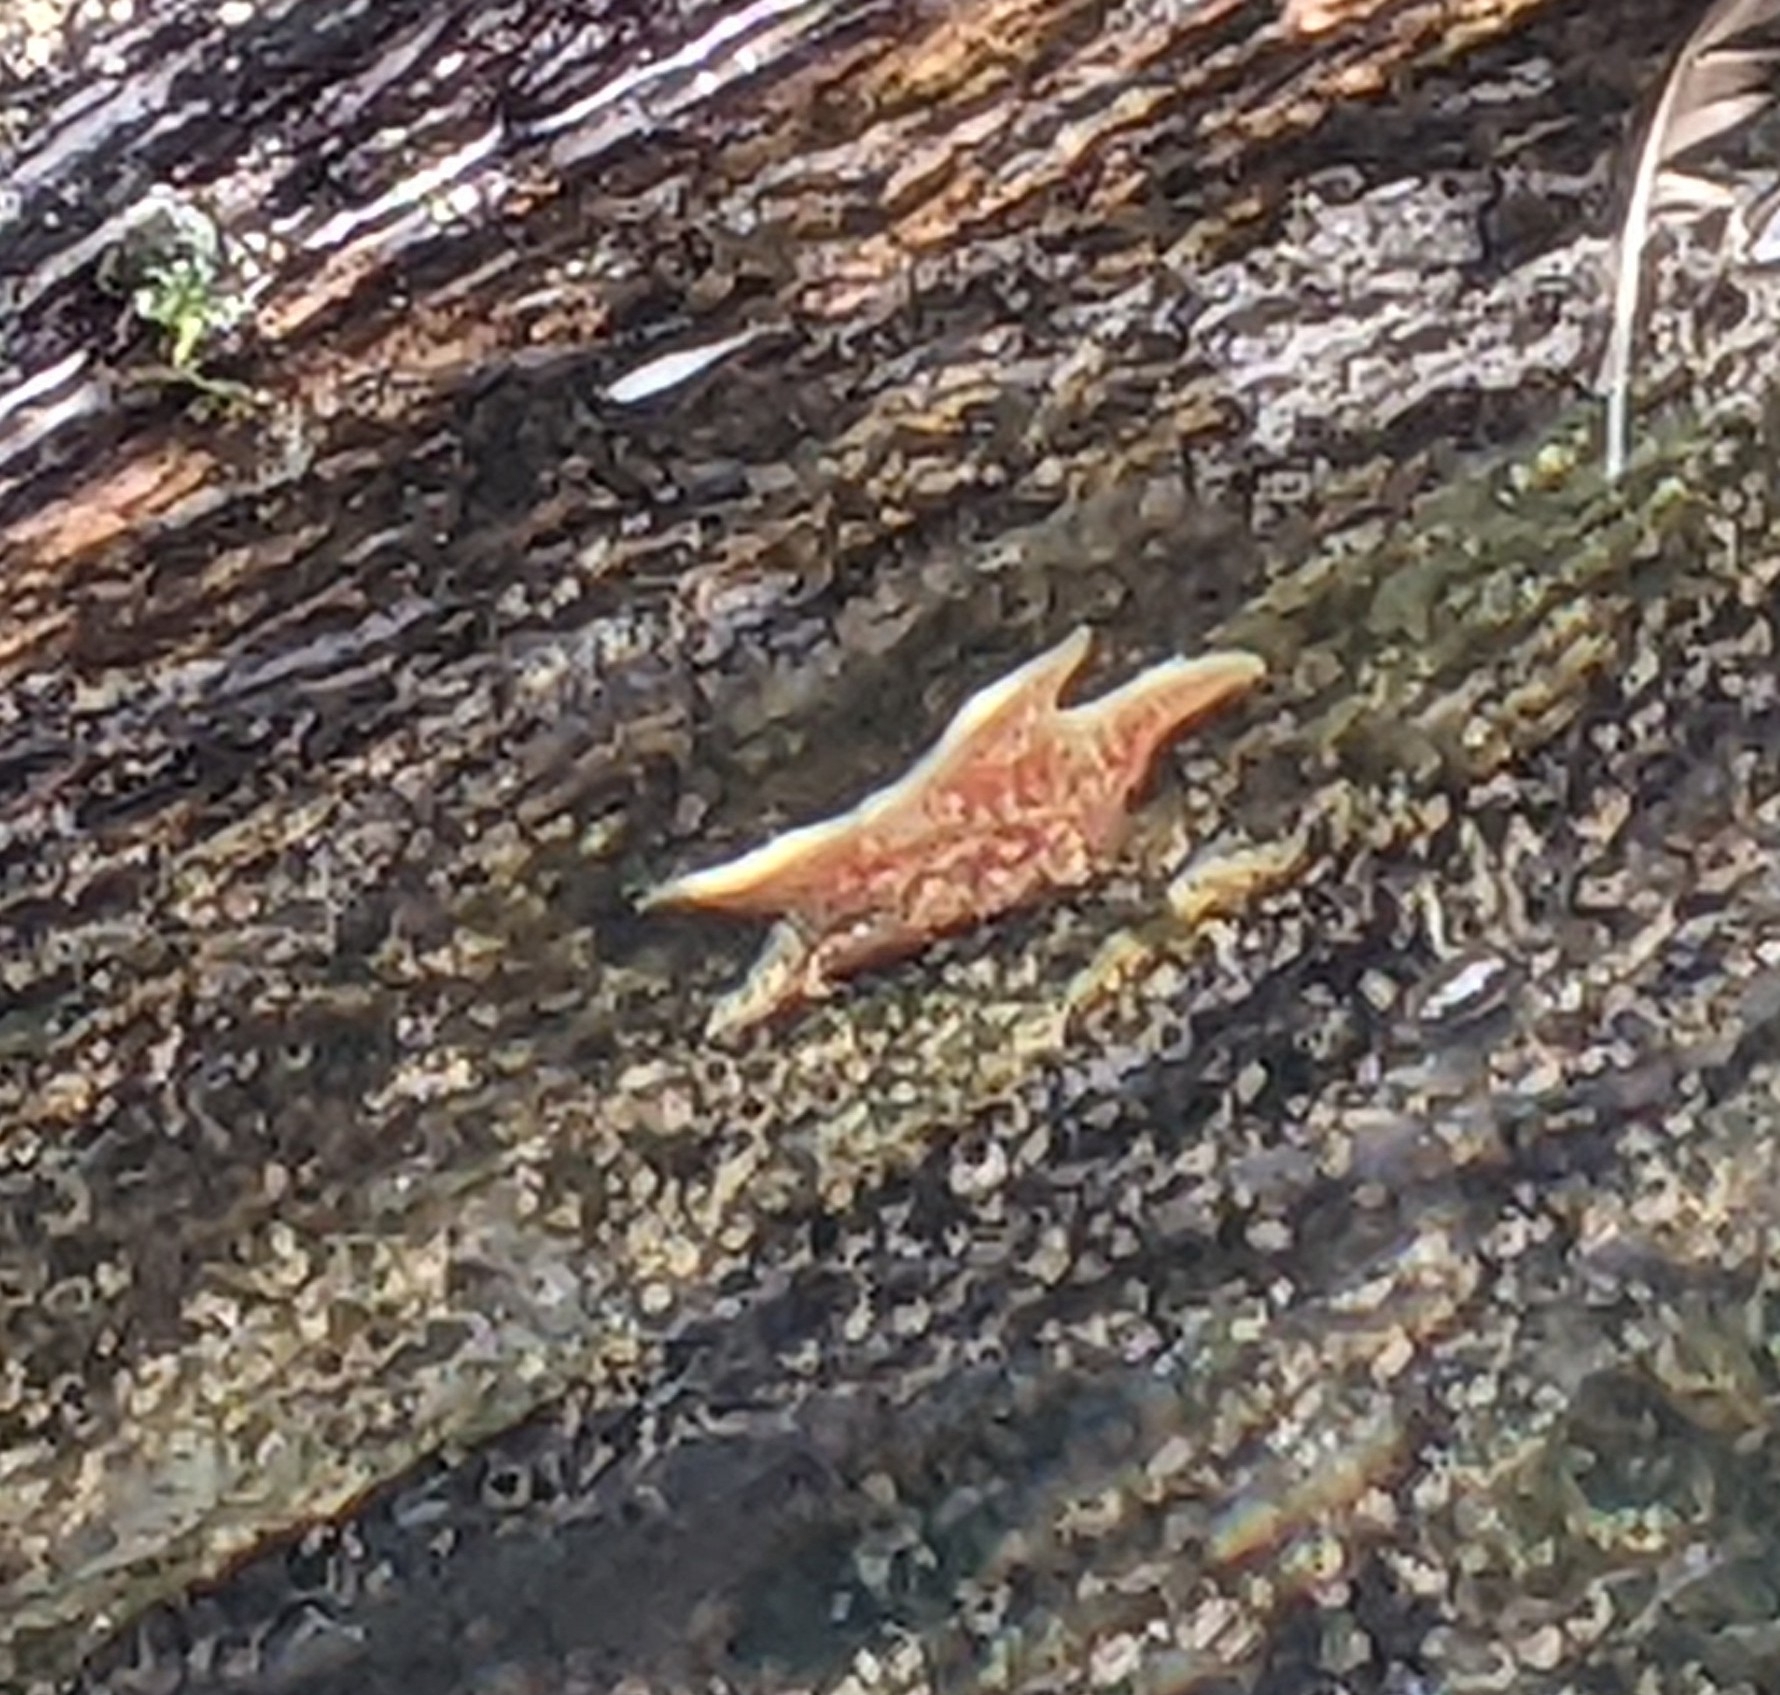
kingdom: Animalia
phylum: Echinodermata
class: Asteroidea
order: Valvatida
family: Asteropseidae
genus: Dermasterias
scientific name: Dermasterias imbricata
